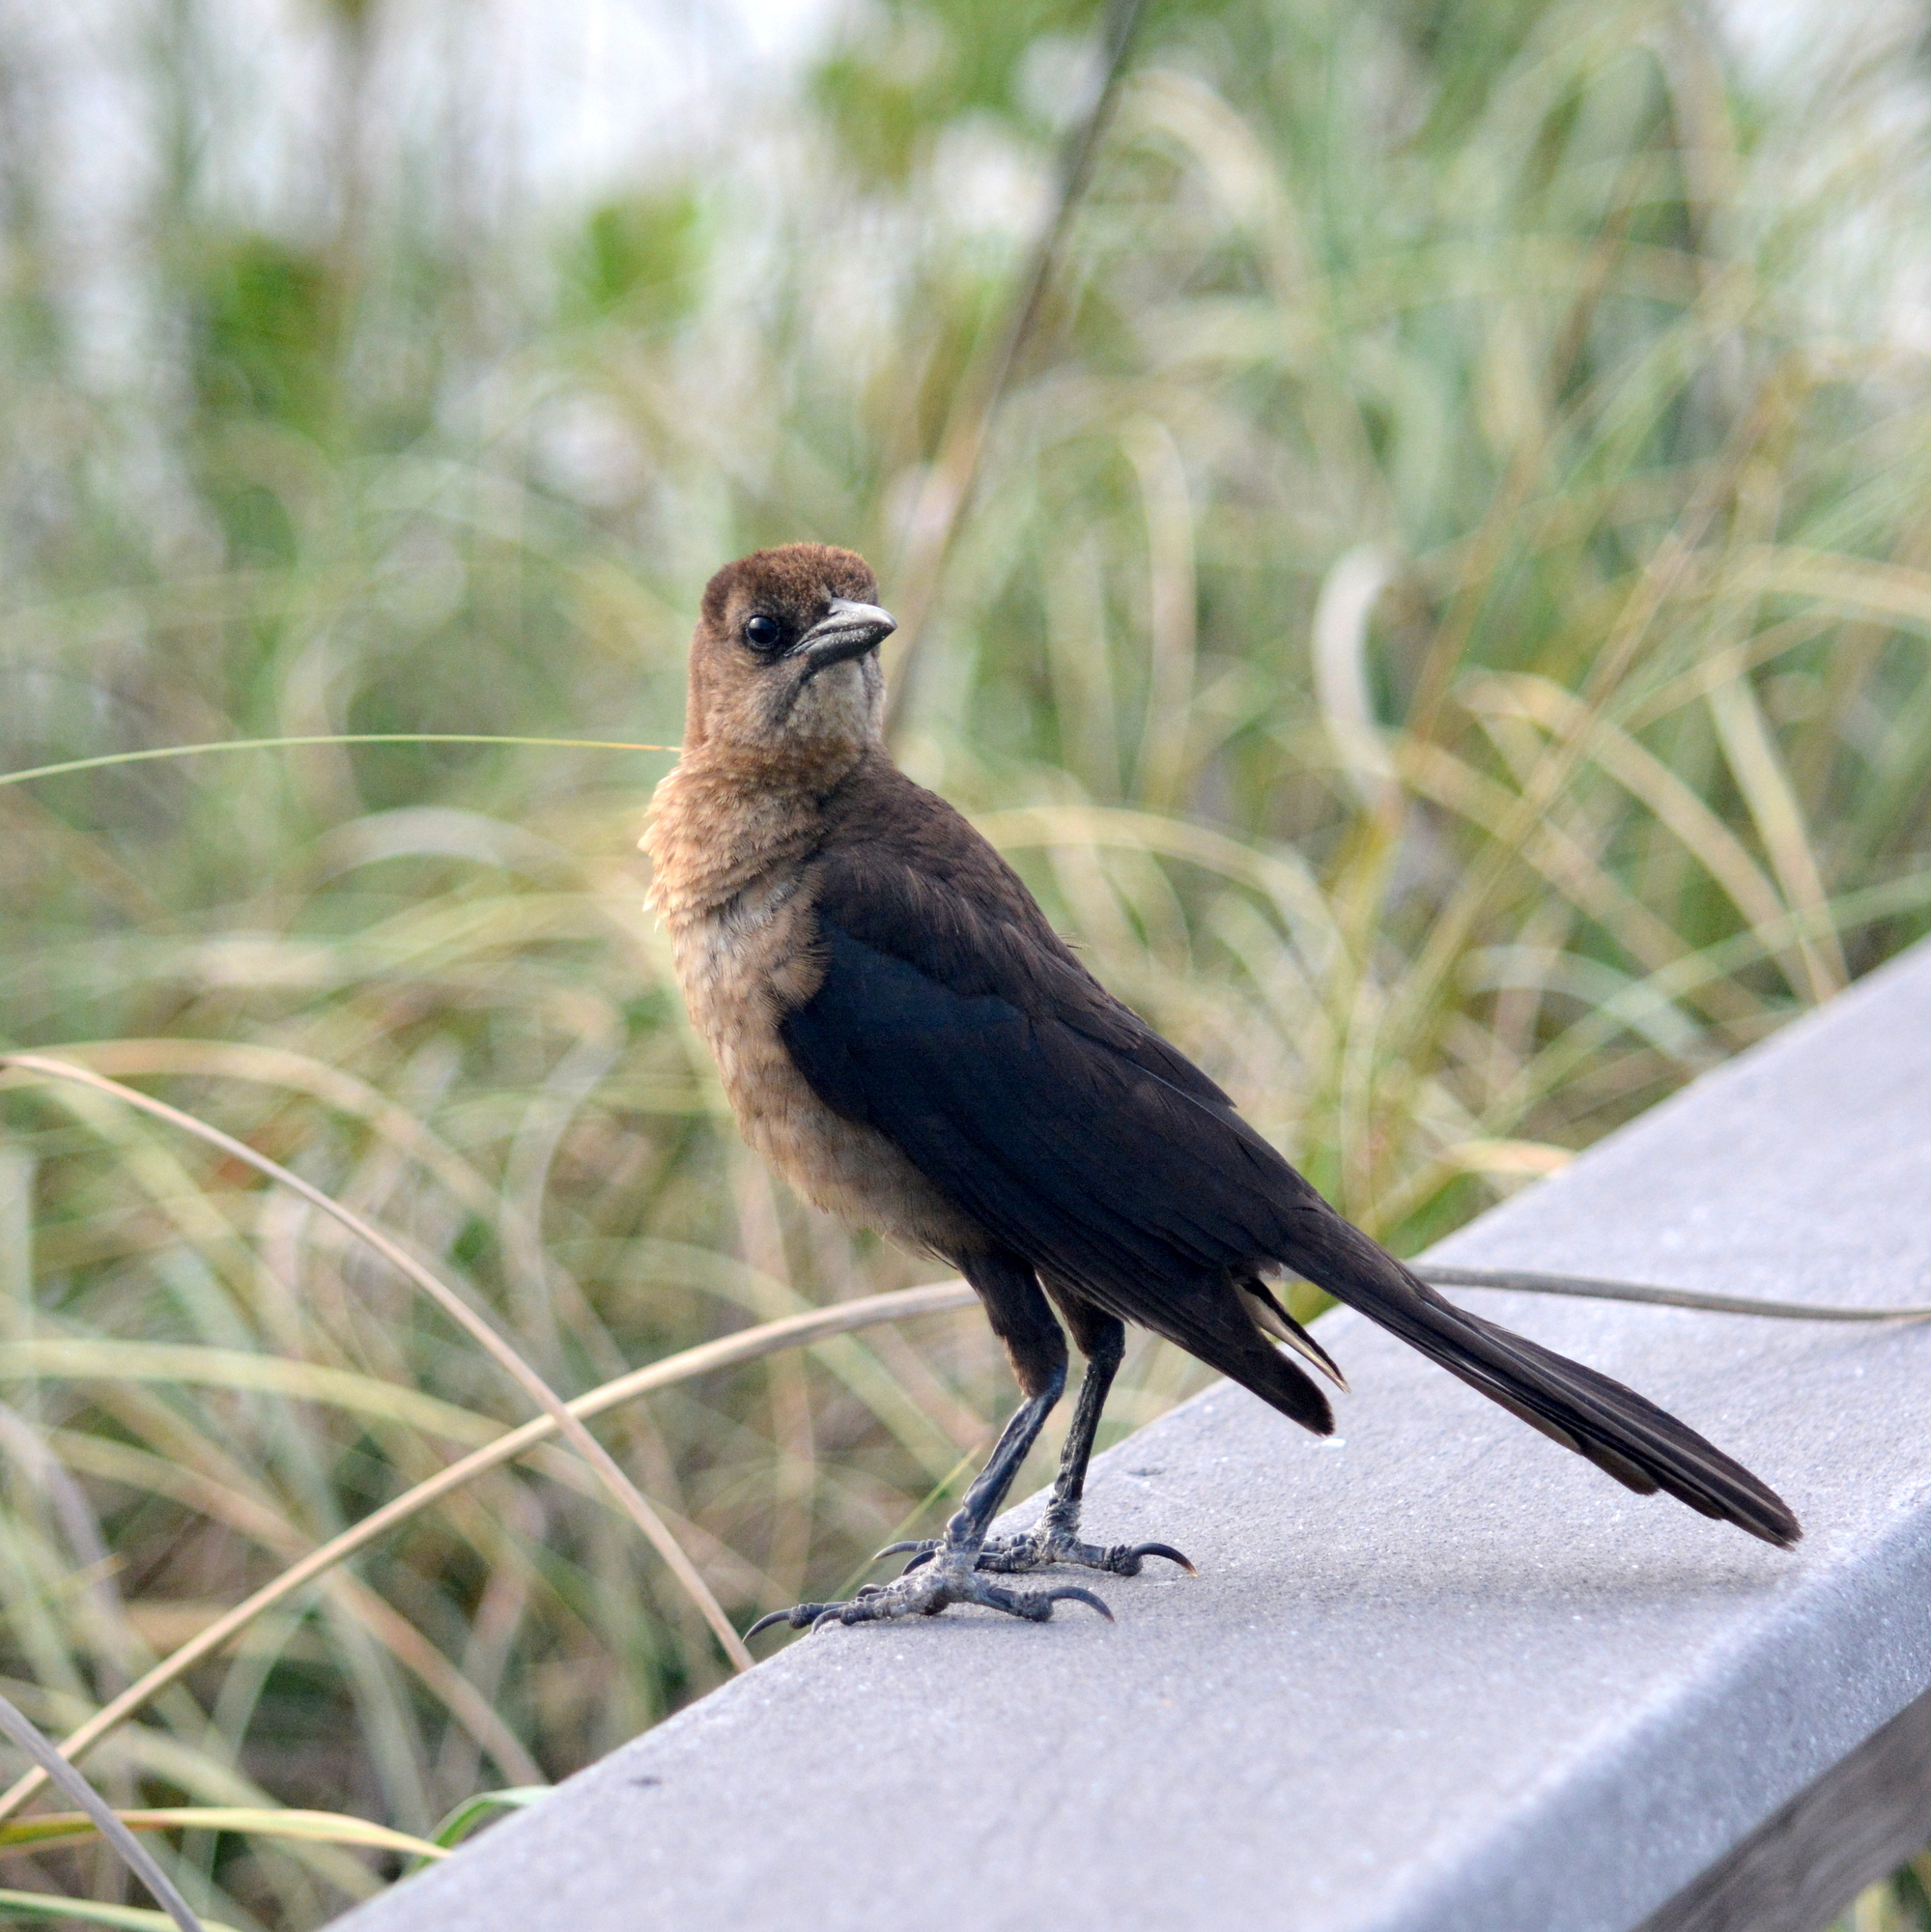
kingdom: Animalia
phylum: Chordata
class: Aves
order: Passeriformes
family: Icteridae
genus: Quiscalus
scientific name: Quiscalus major
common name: Boat-tailed grackle
